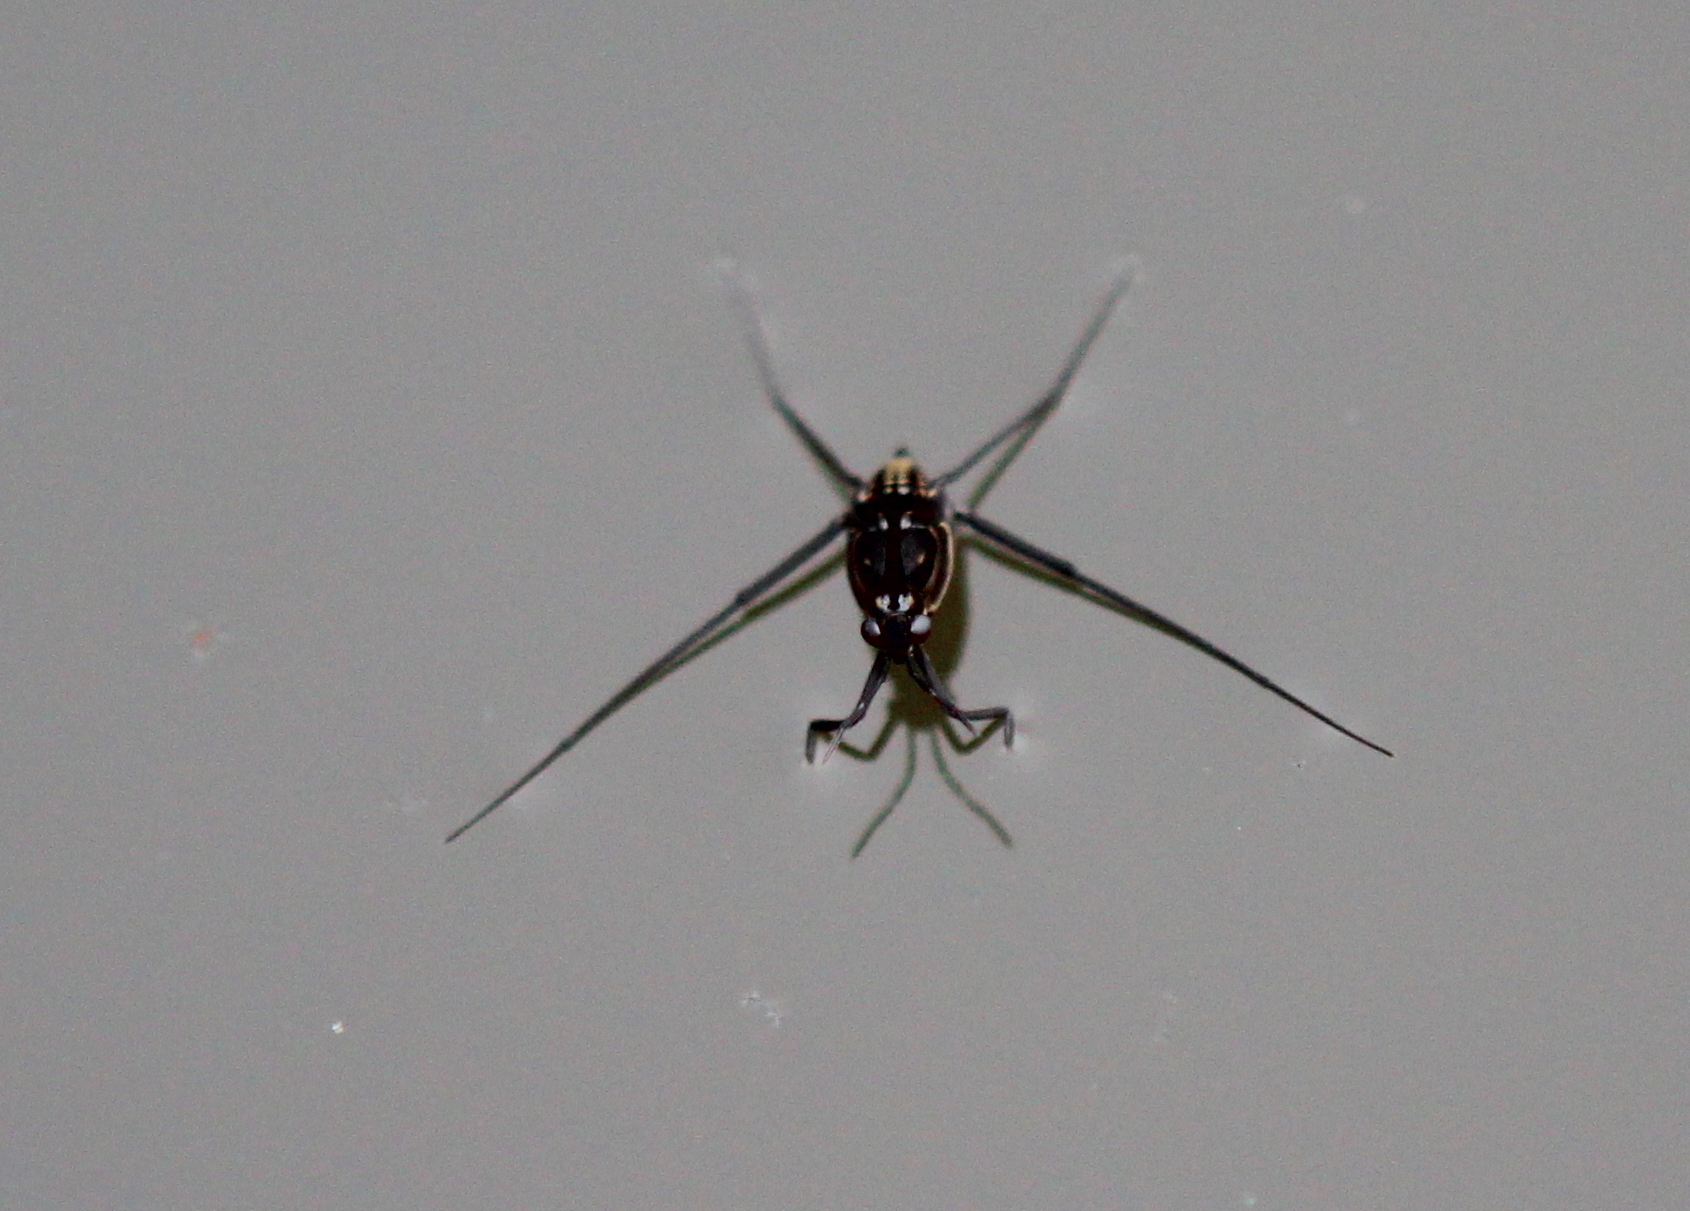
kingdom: Animalia
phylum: Arthropoda
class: Insecta
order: Hemiptera
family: Gerridae
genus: Trepobates
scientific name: Trepobates
